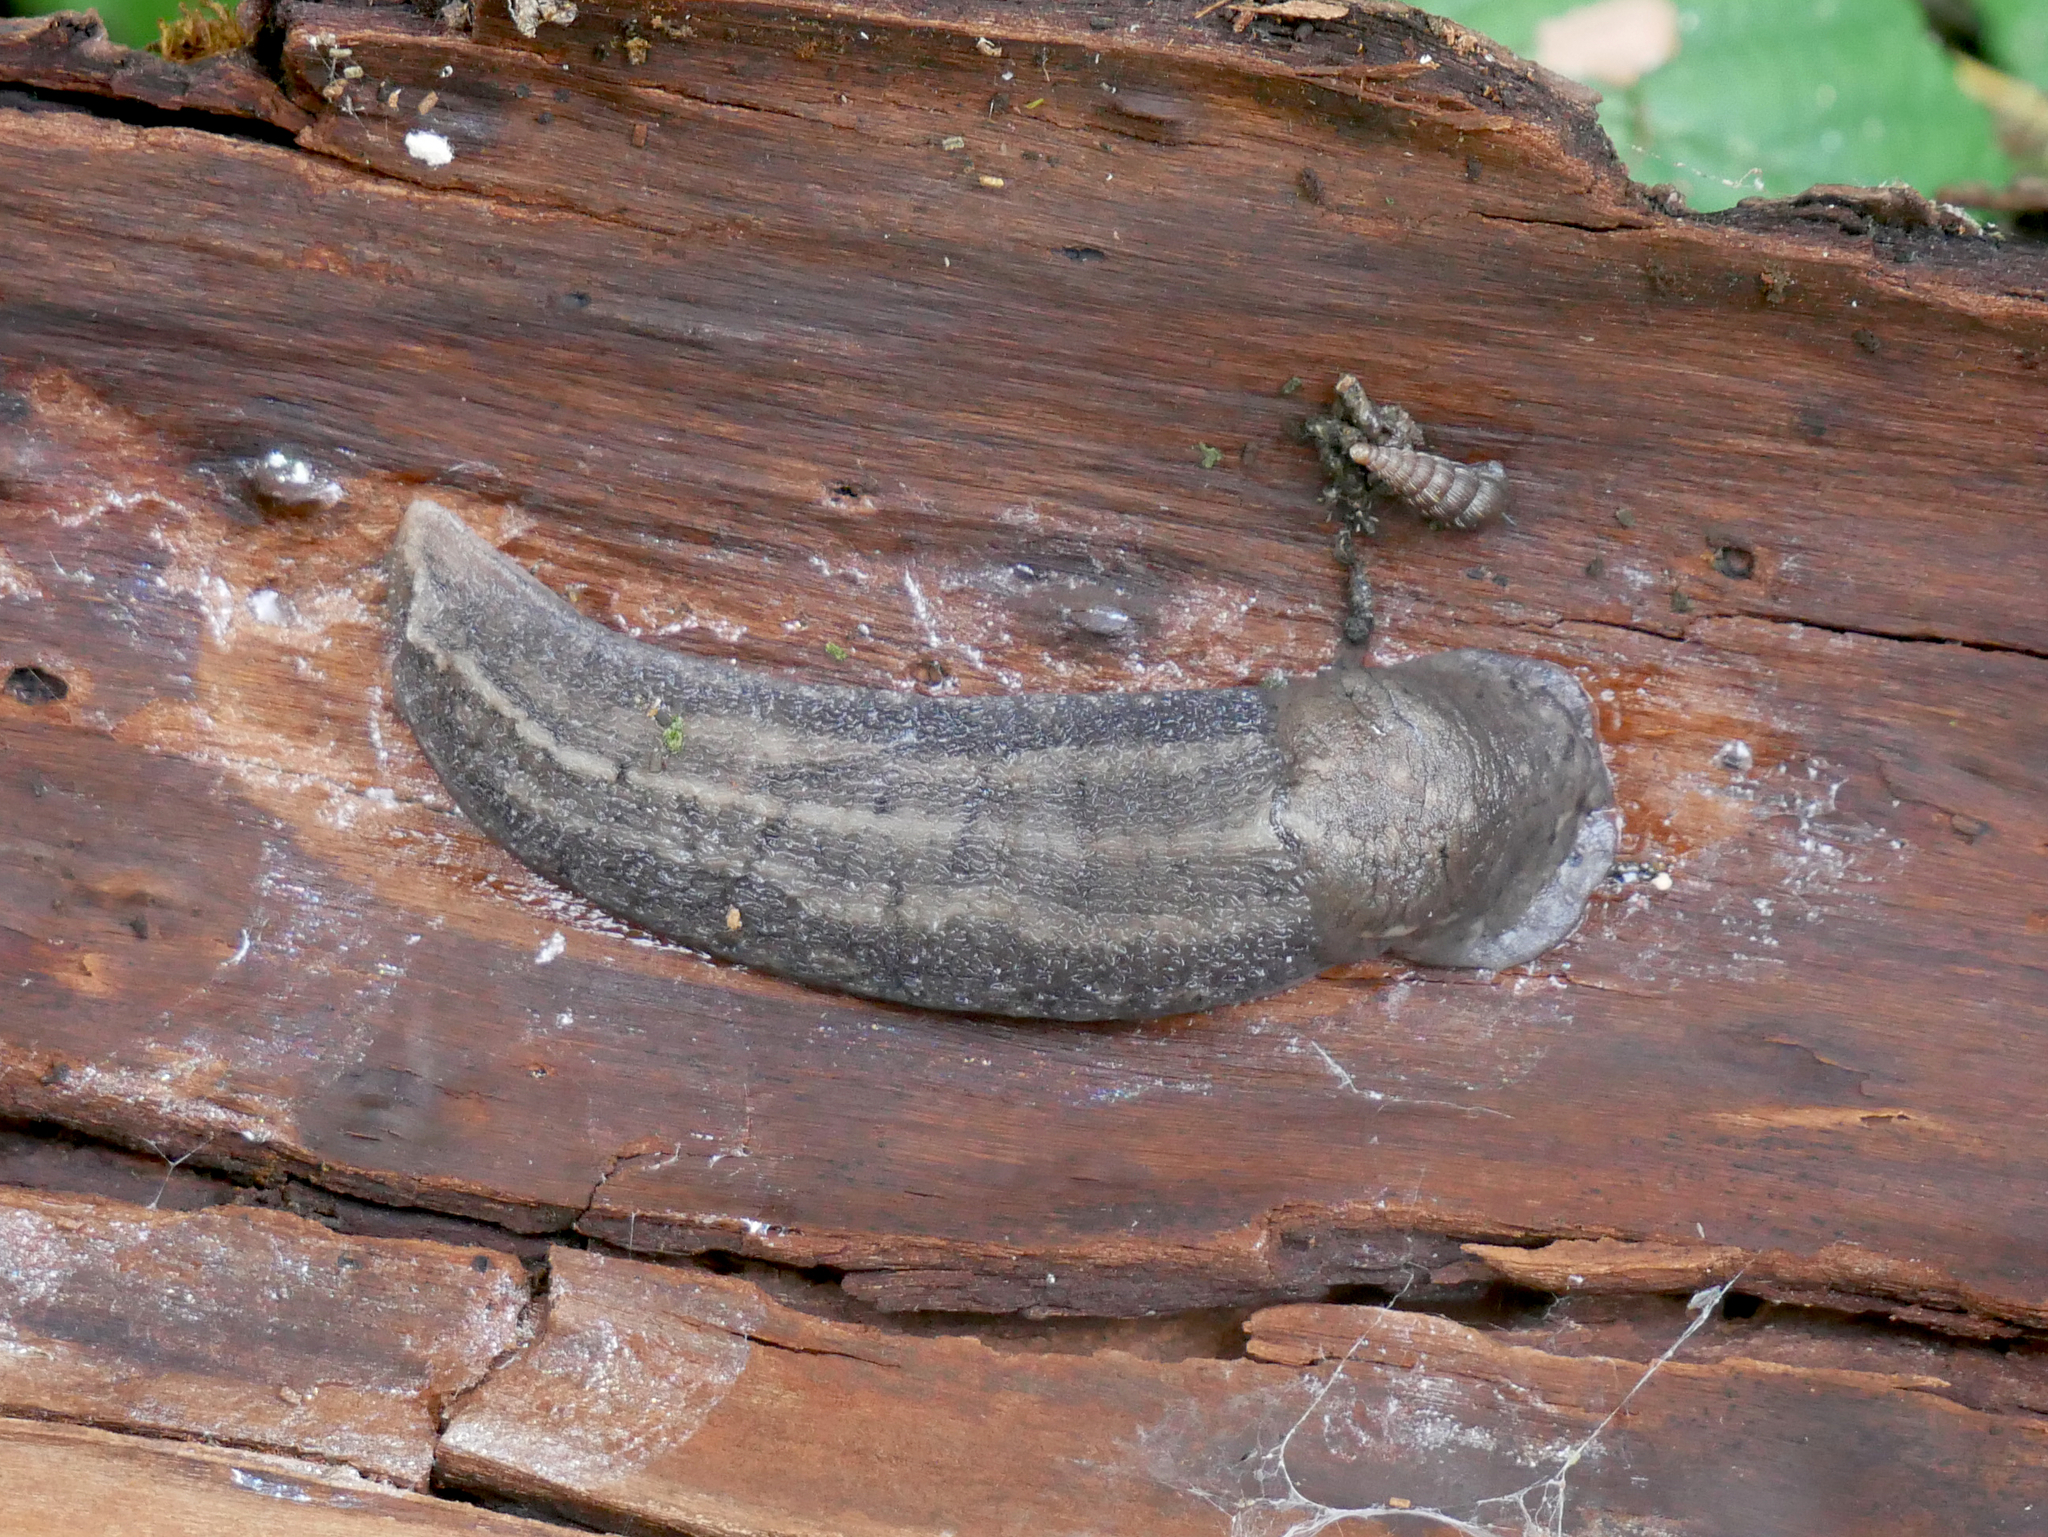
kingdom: Animalia
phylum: Mollusca
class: Gastropoda
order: Stylommatophora
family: Limacidae
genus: Limax
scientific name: Limax maximus
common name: Great grey slug
